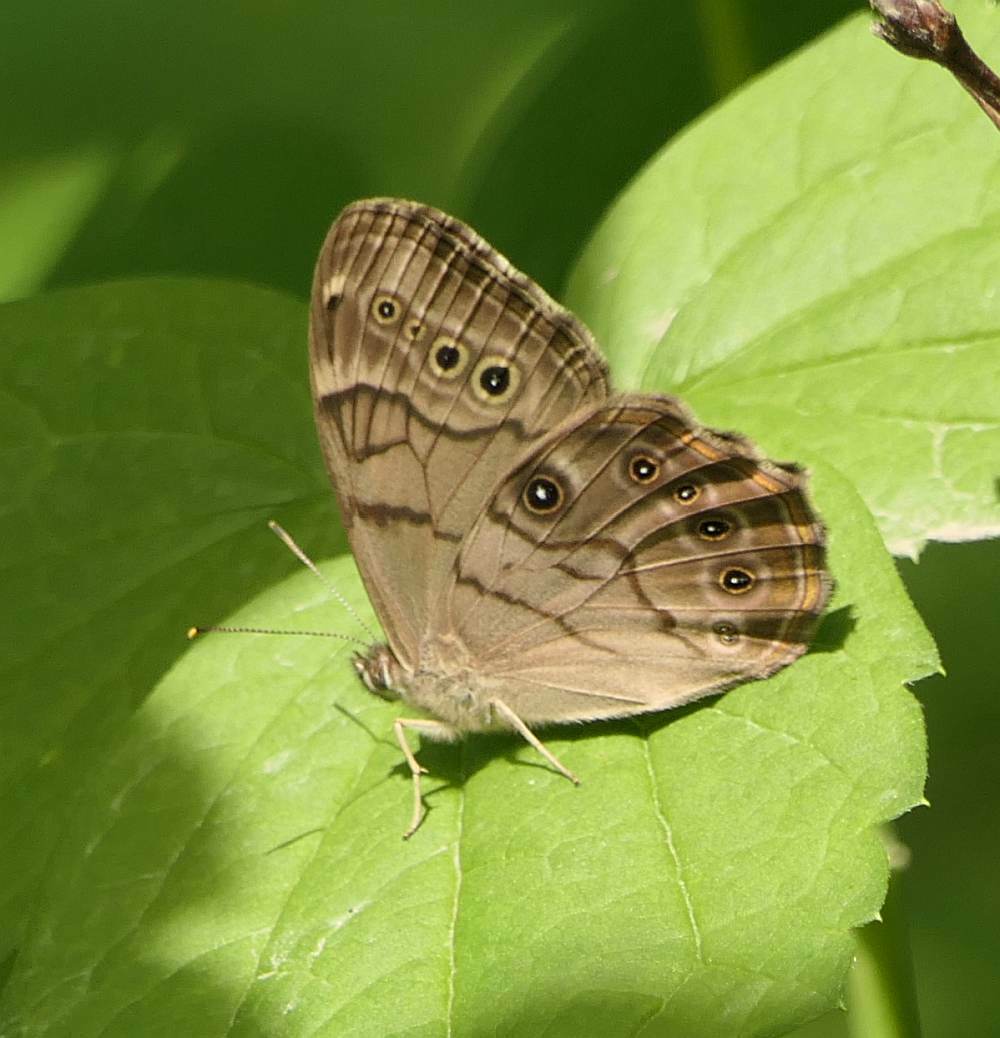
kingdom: Animalia
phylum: Arthropoda
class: Insecta
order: Lepidoptera
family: Nymphalidae
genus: Lethe
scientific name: Lethe anthedon
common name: Northern pearly-eye
